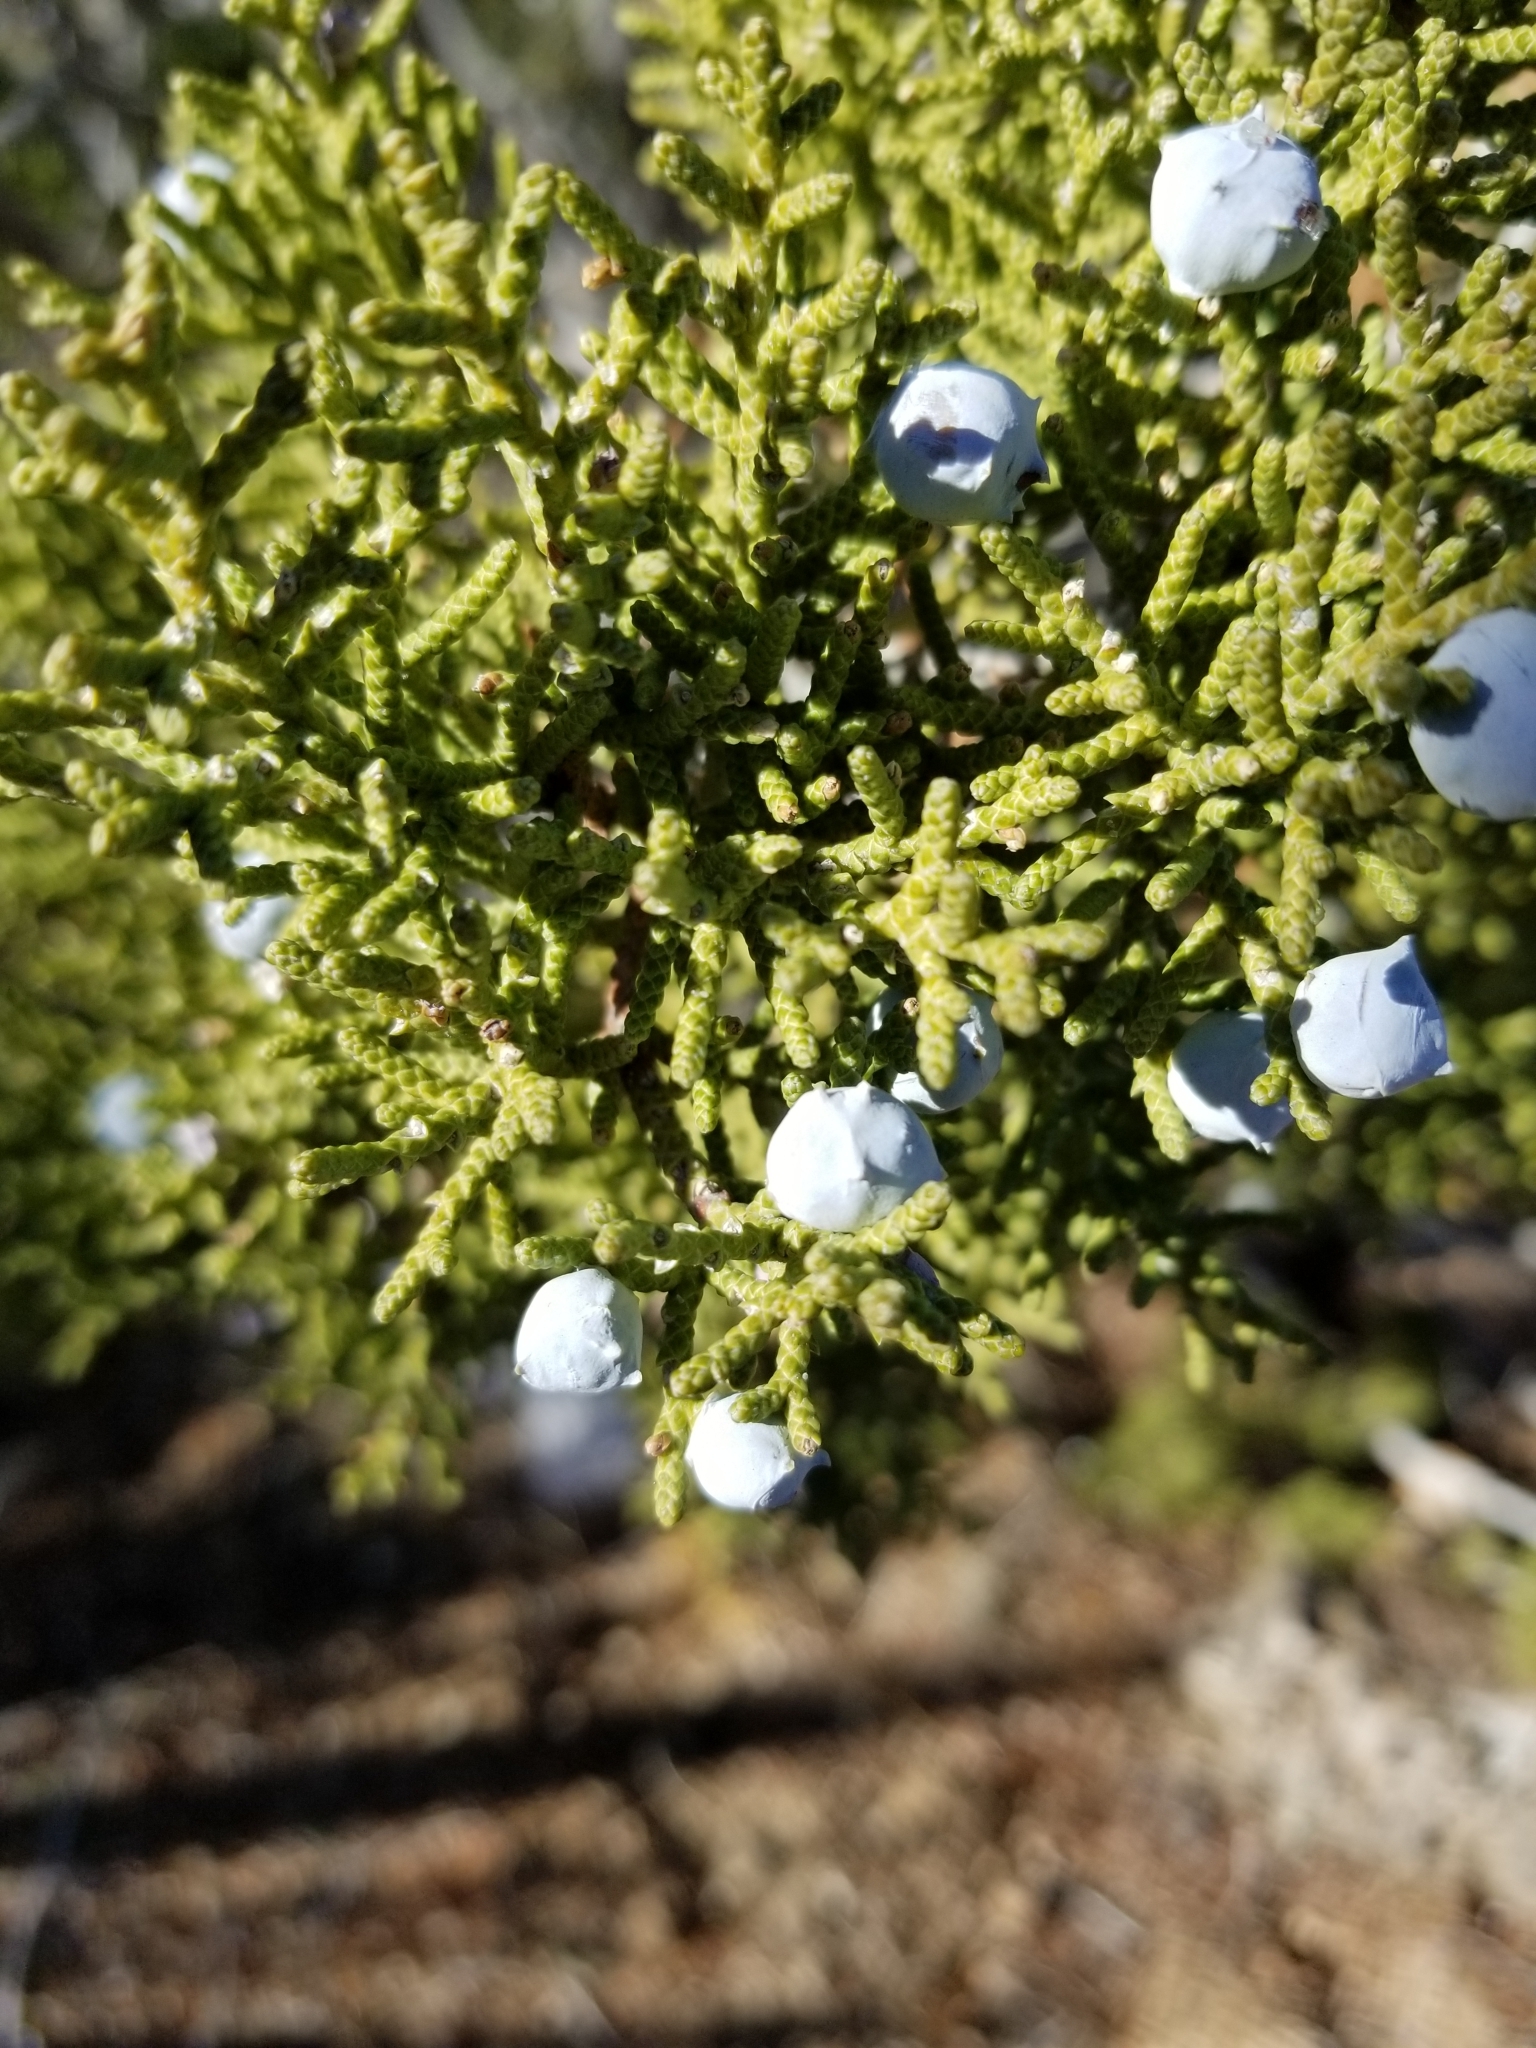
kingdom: Plantae
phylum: Tracheophyta
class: Pinopsida
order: Pinales
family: Cupressaceae
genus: Juniperus
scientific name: Juniperus californica
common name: California juniper
